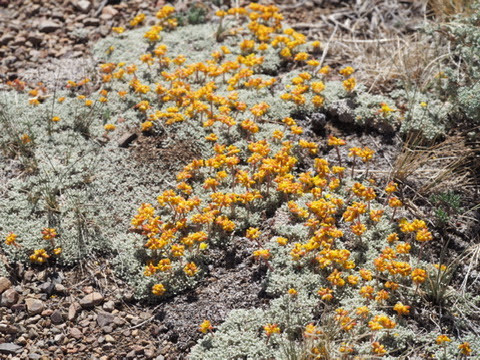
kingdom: Plantae
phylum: Tracheophyta
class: Magnoliopsida
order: Caryophyllales
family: Polygonaceae
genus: Eriogonum
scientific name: Eriogonum caespitosum
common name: Matted wild buckwheat
